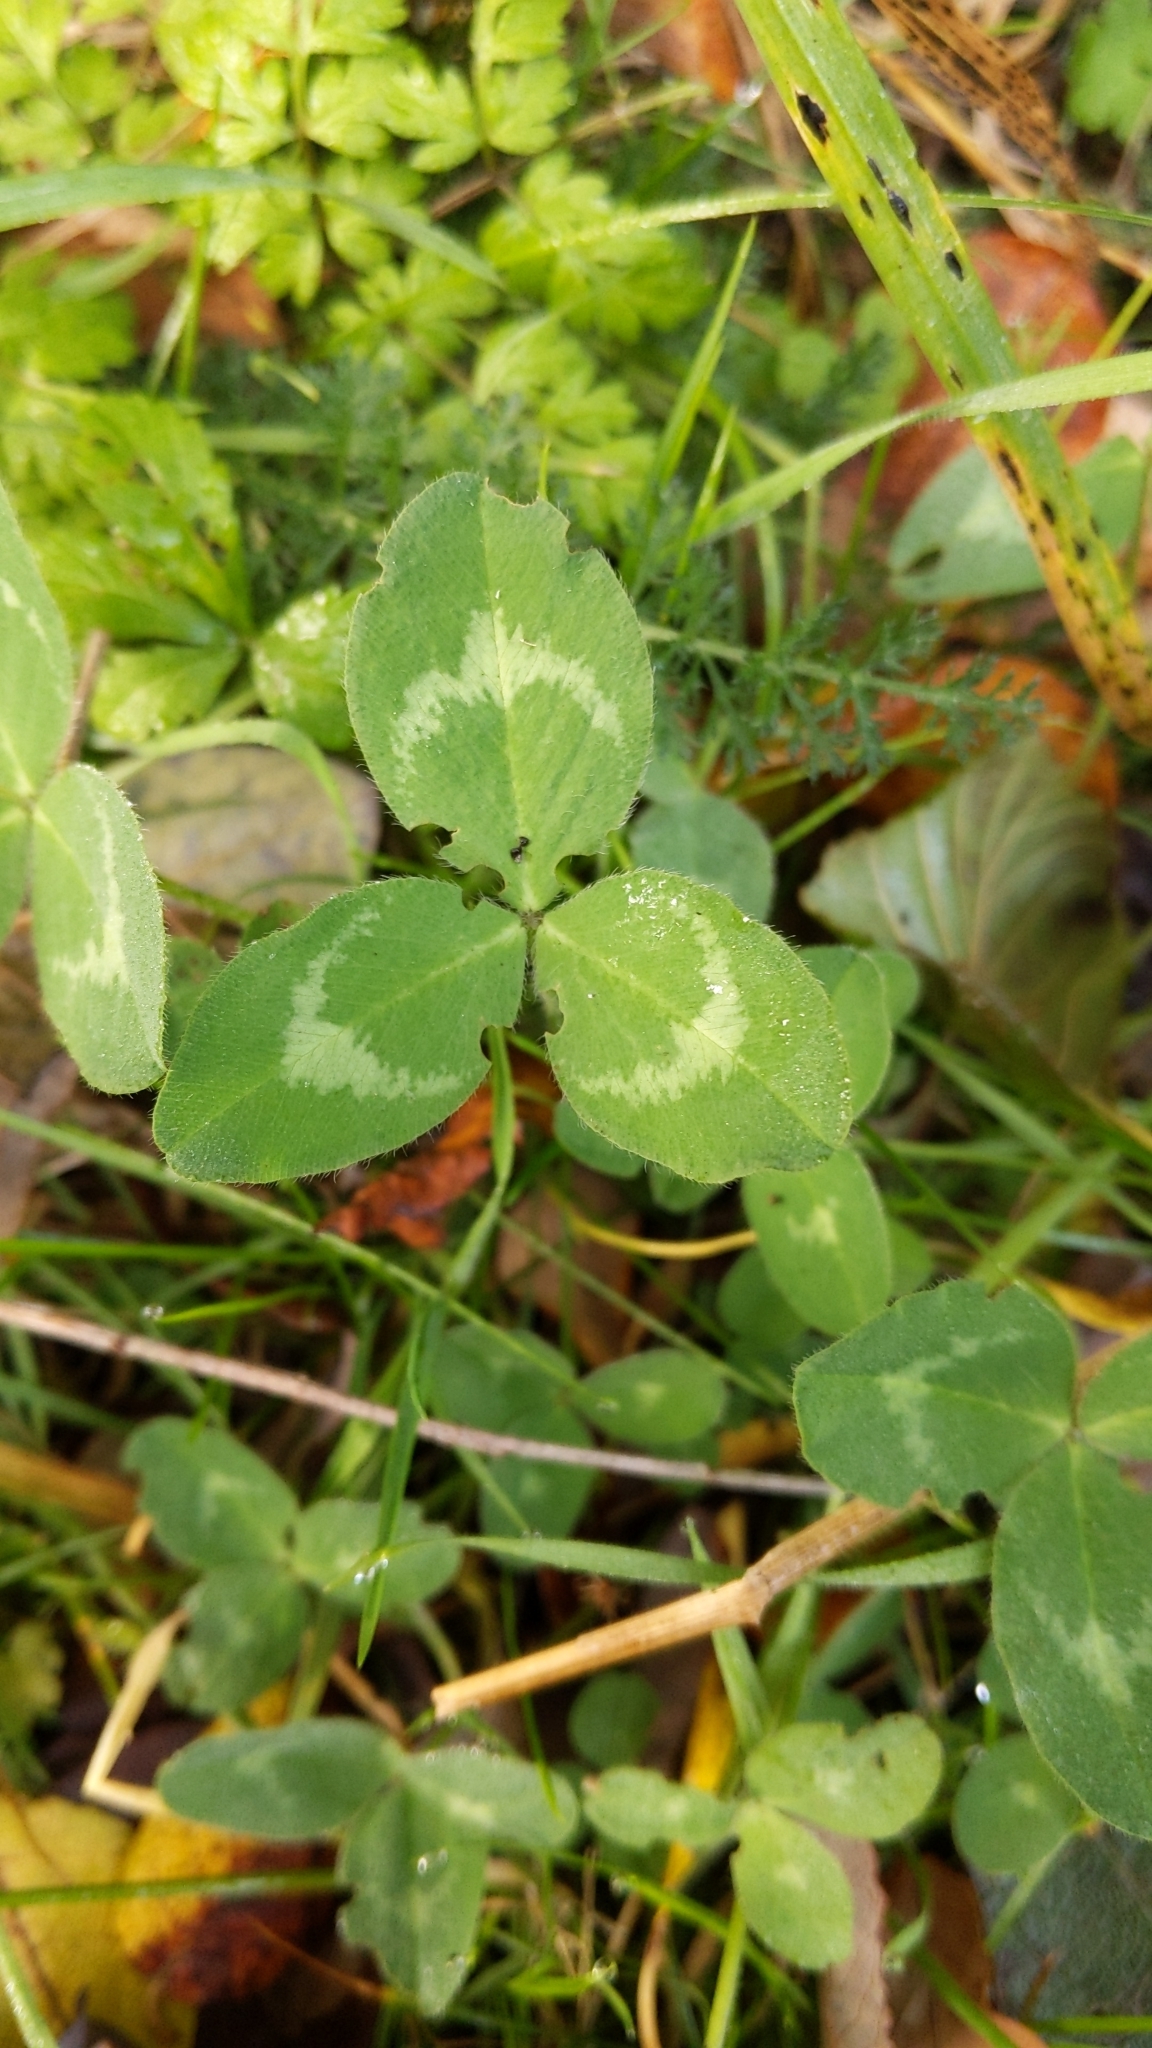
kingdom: Plantae
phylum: Tracheophyta
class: Magnoliopsida
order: Fabales
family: Fabaceae
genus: Trifolium
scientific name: Trifolium repens
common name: White clover
